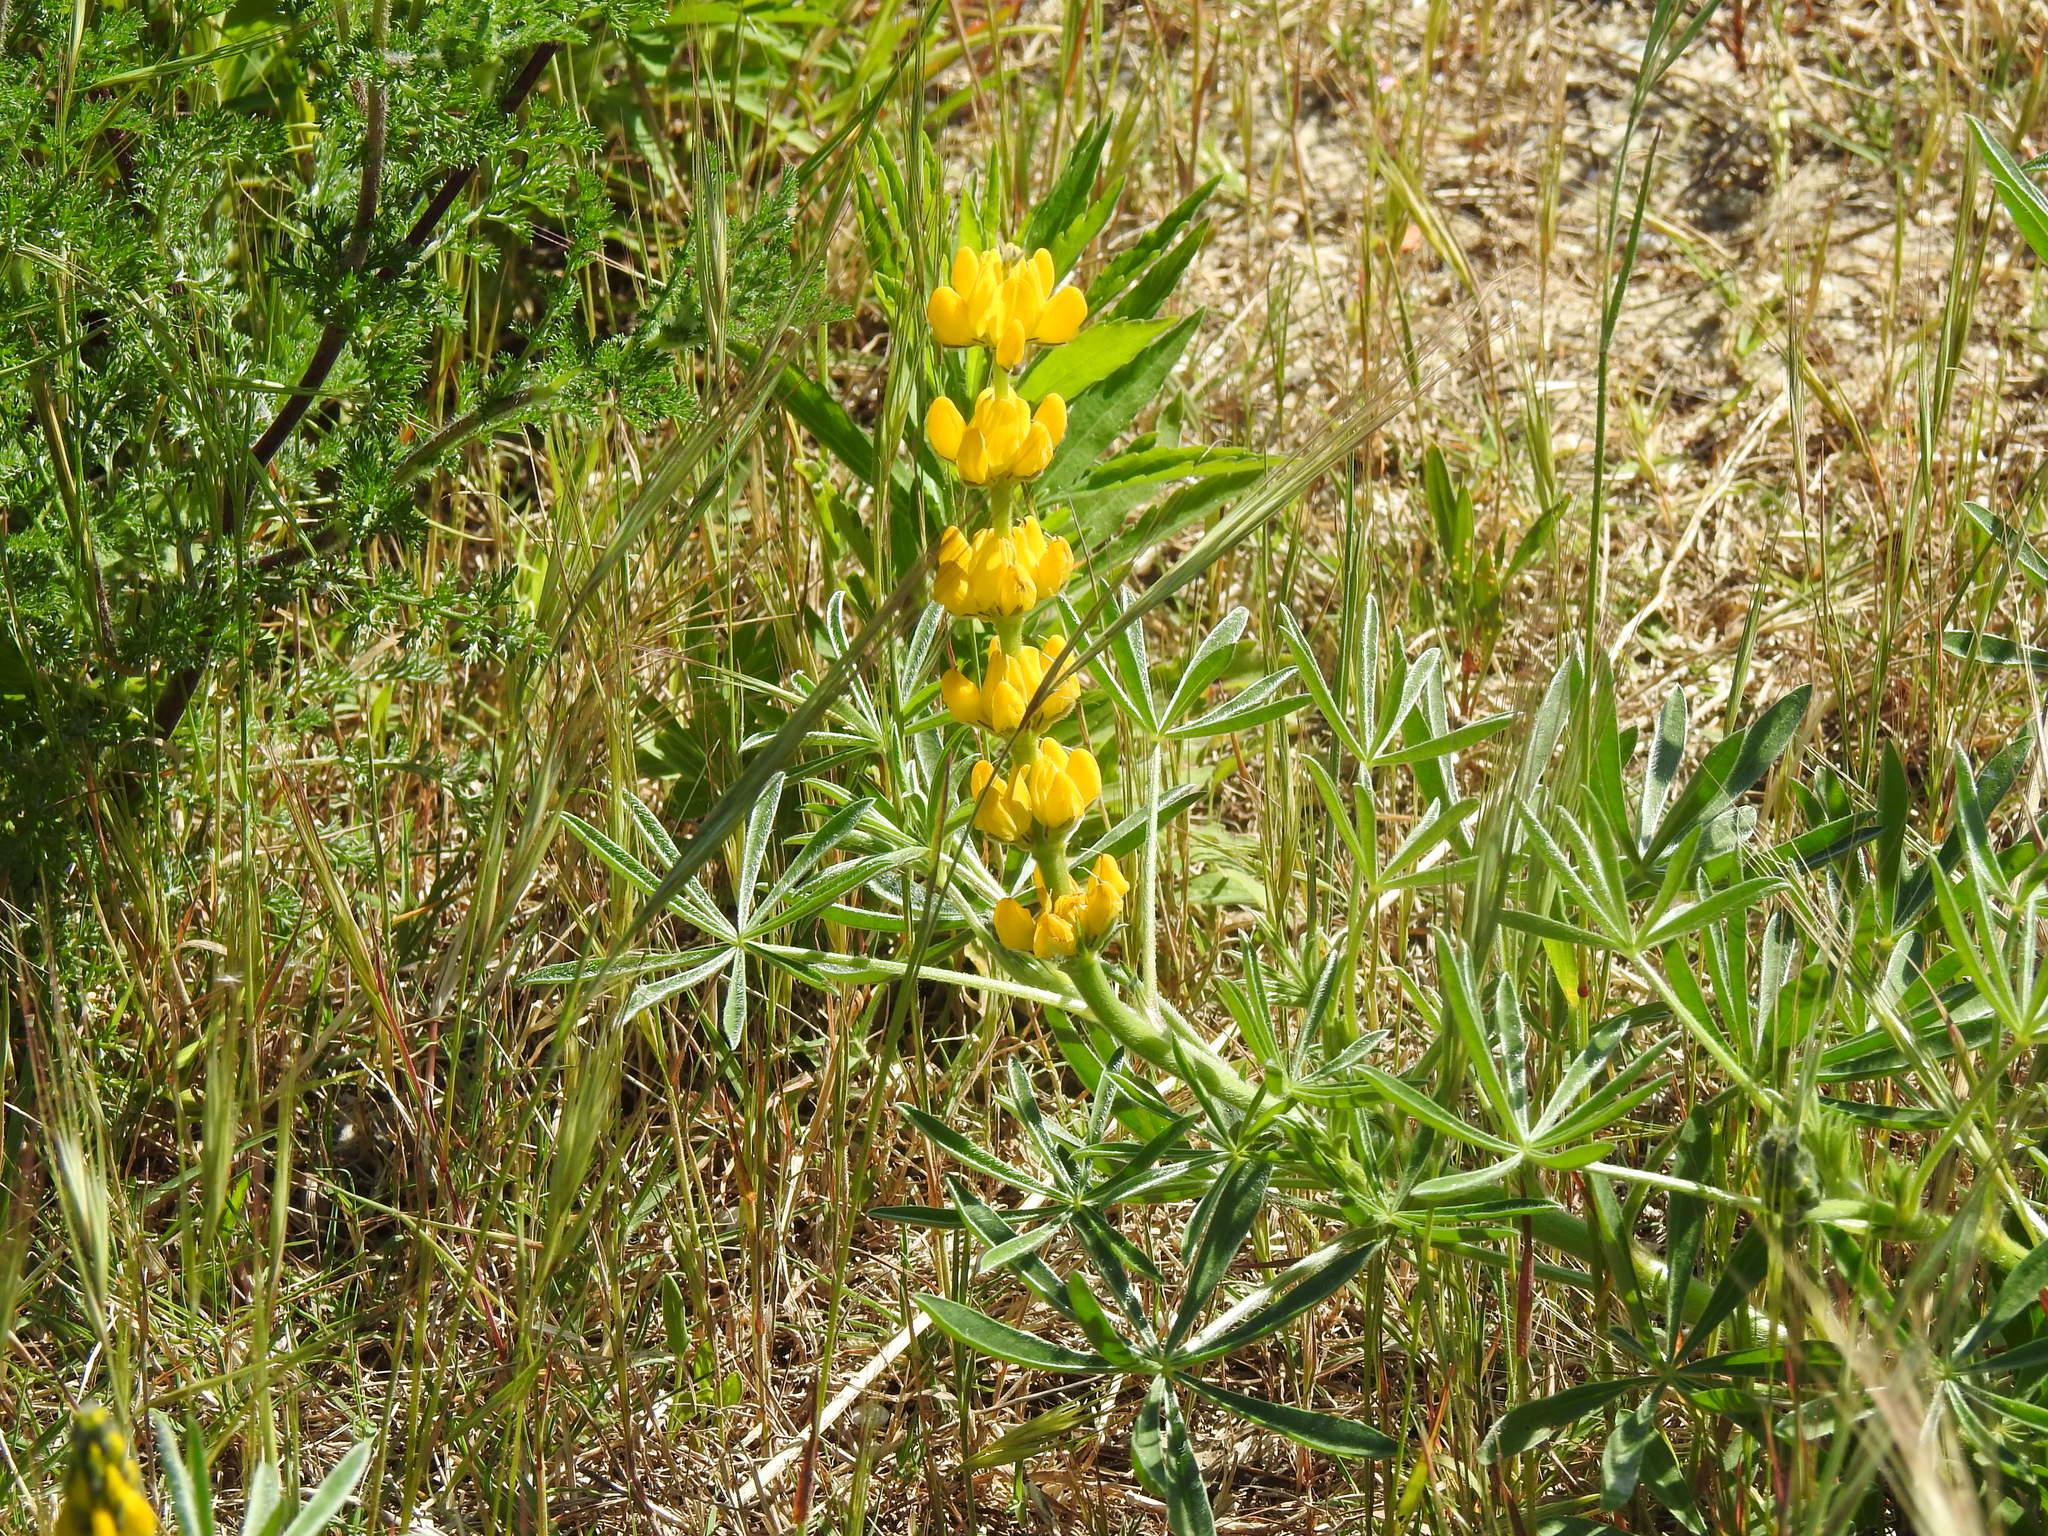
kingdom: Plantae
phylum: Tracheophyta
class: Magnoliopsida
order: Fabales
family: Fabaceae
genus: Lupinus
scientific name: Lupinus luteus
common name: European yellow lupine
